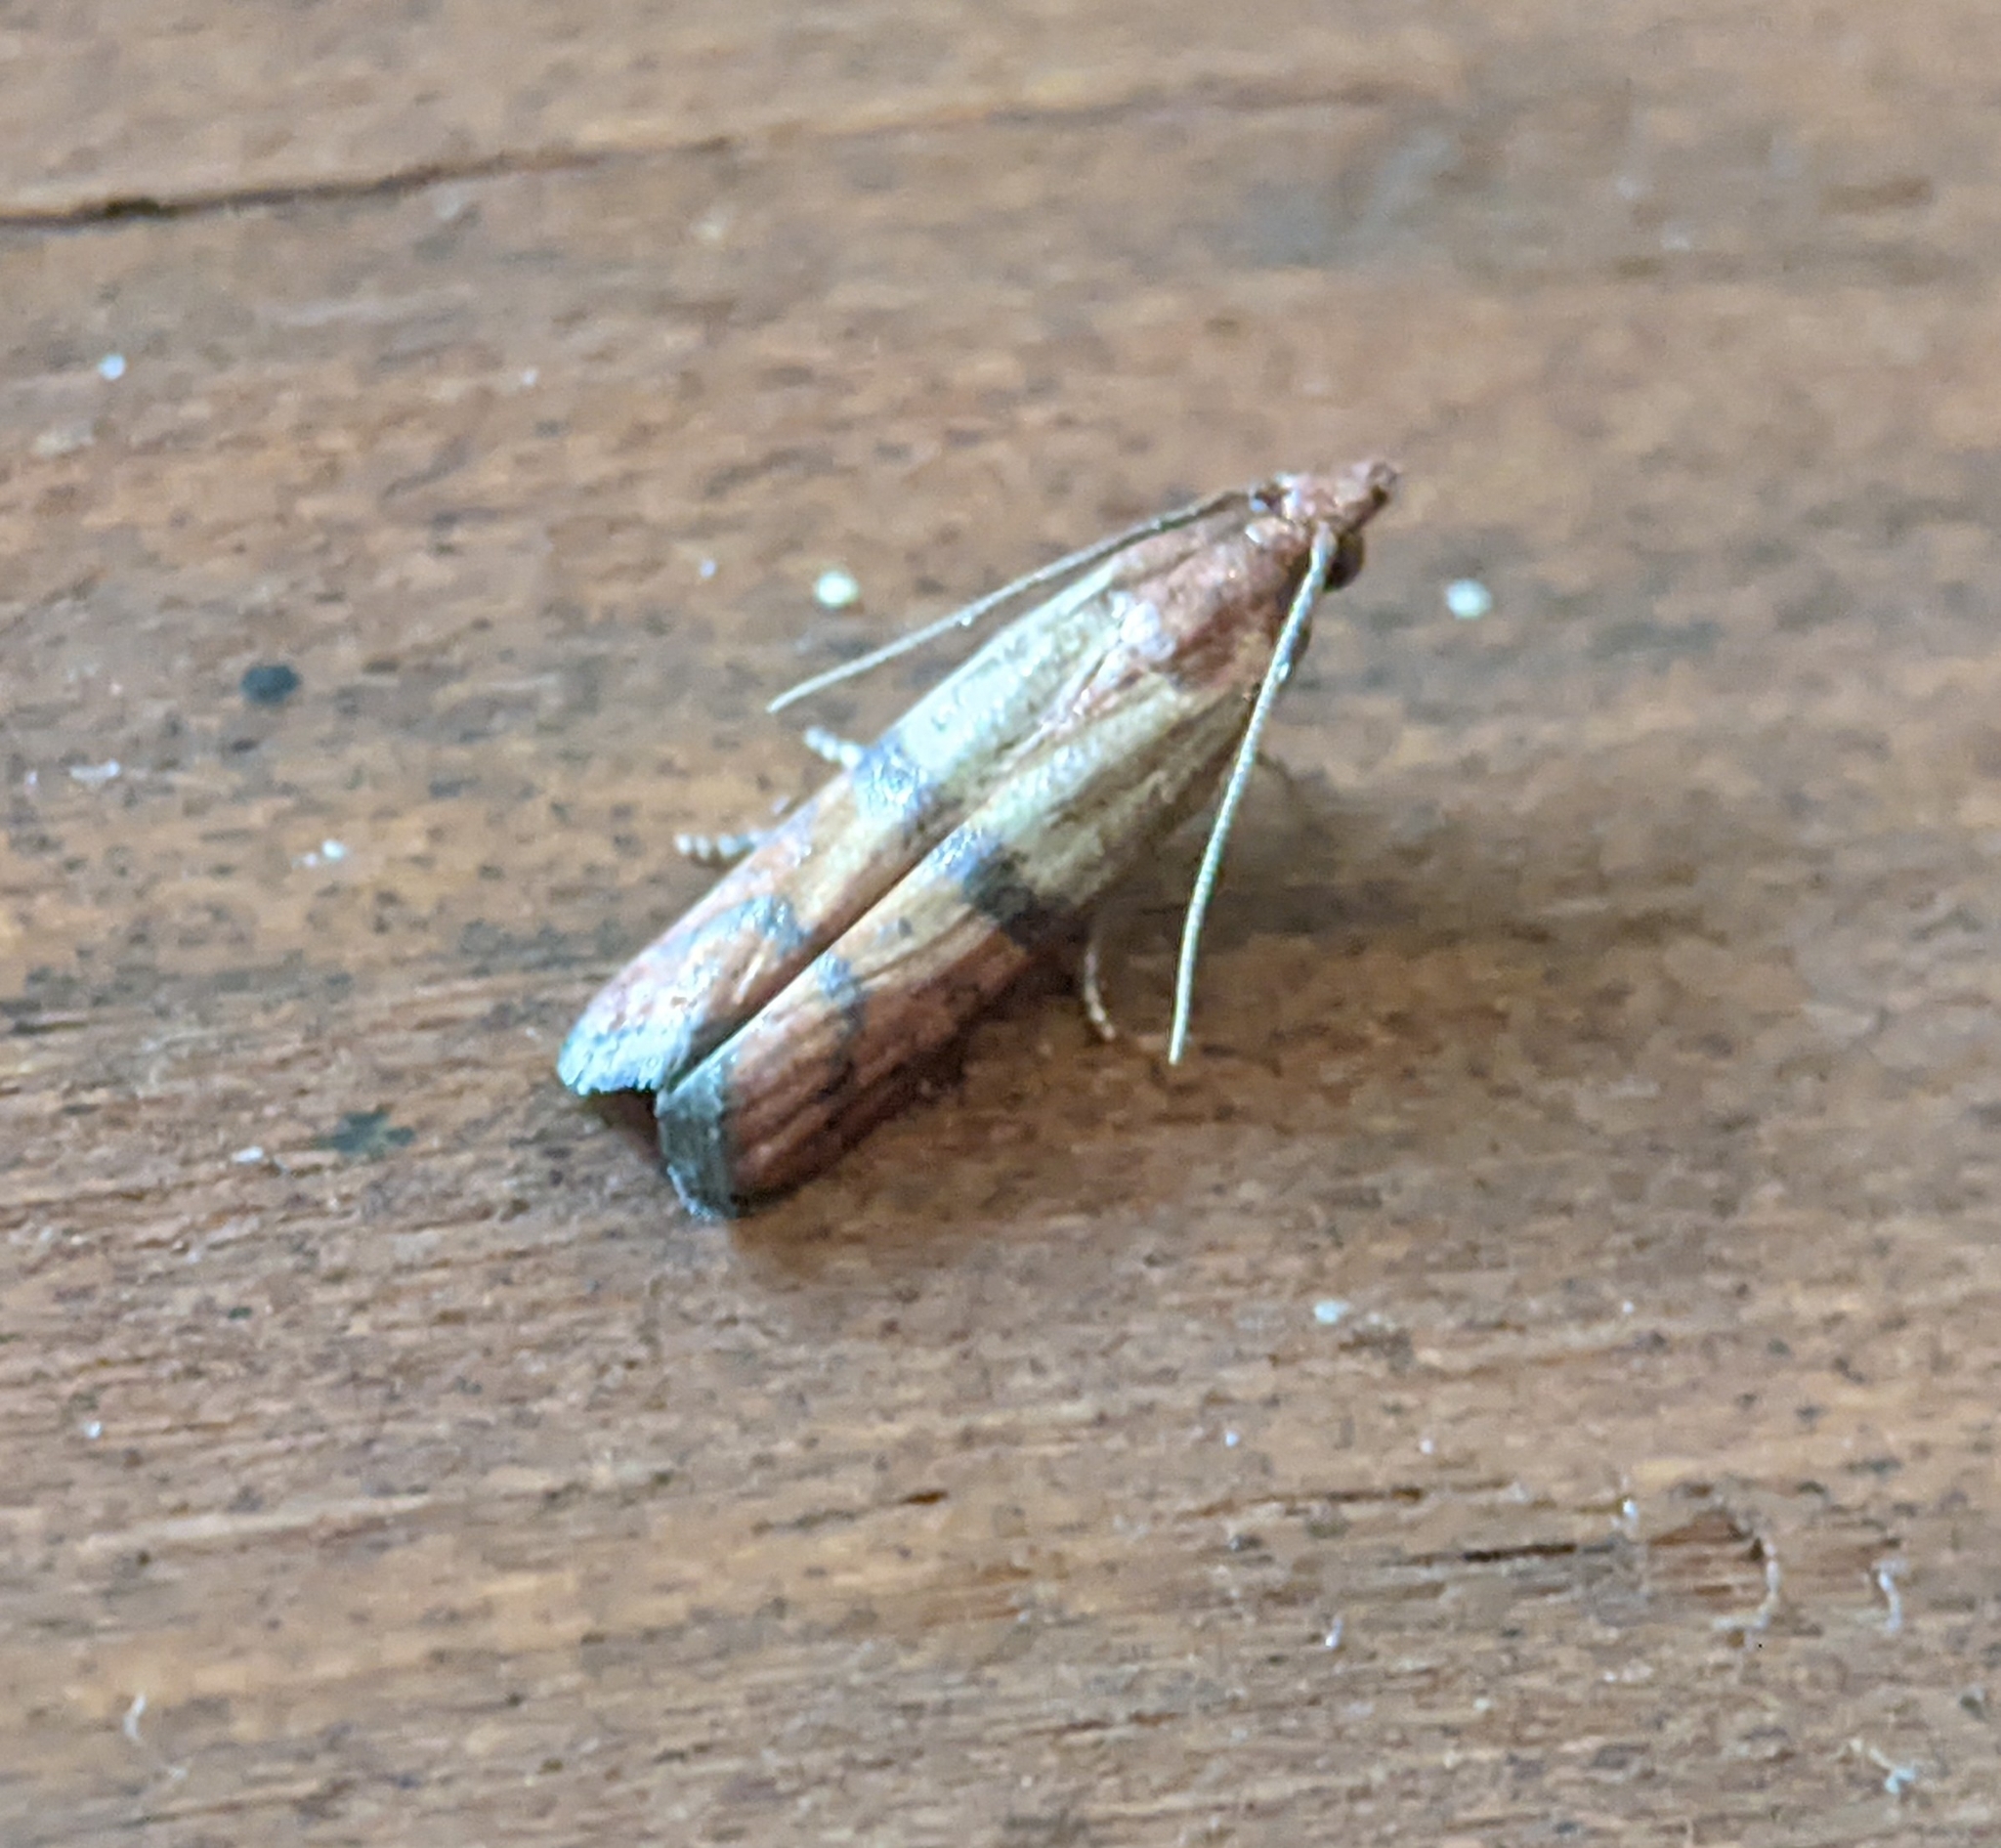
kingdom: Animalia
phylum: Arthropoda
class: Insecta
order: Lepidoptera
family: Pyralidae
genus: Plodia
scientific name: Plodia interpunctella
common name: Indian meal moth
